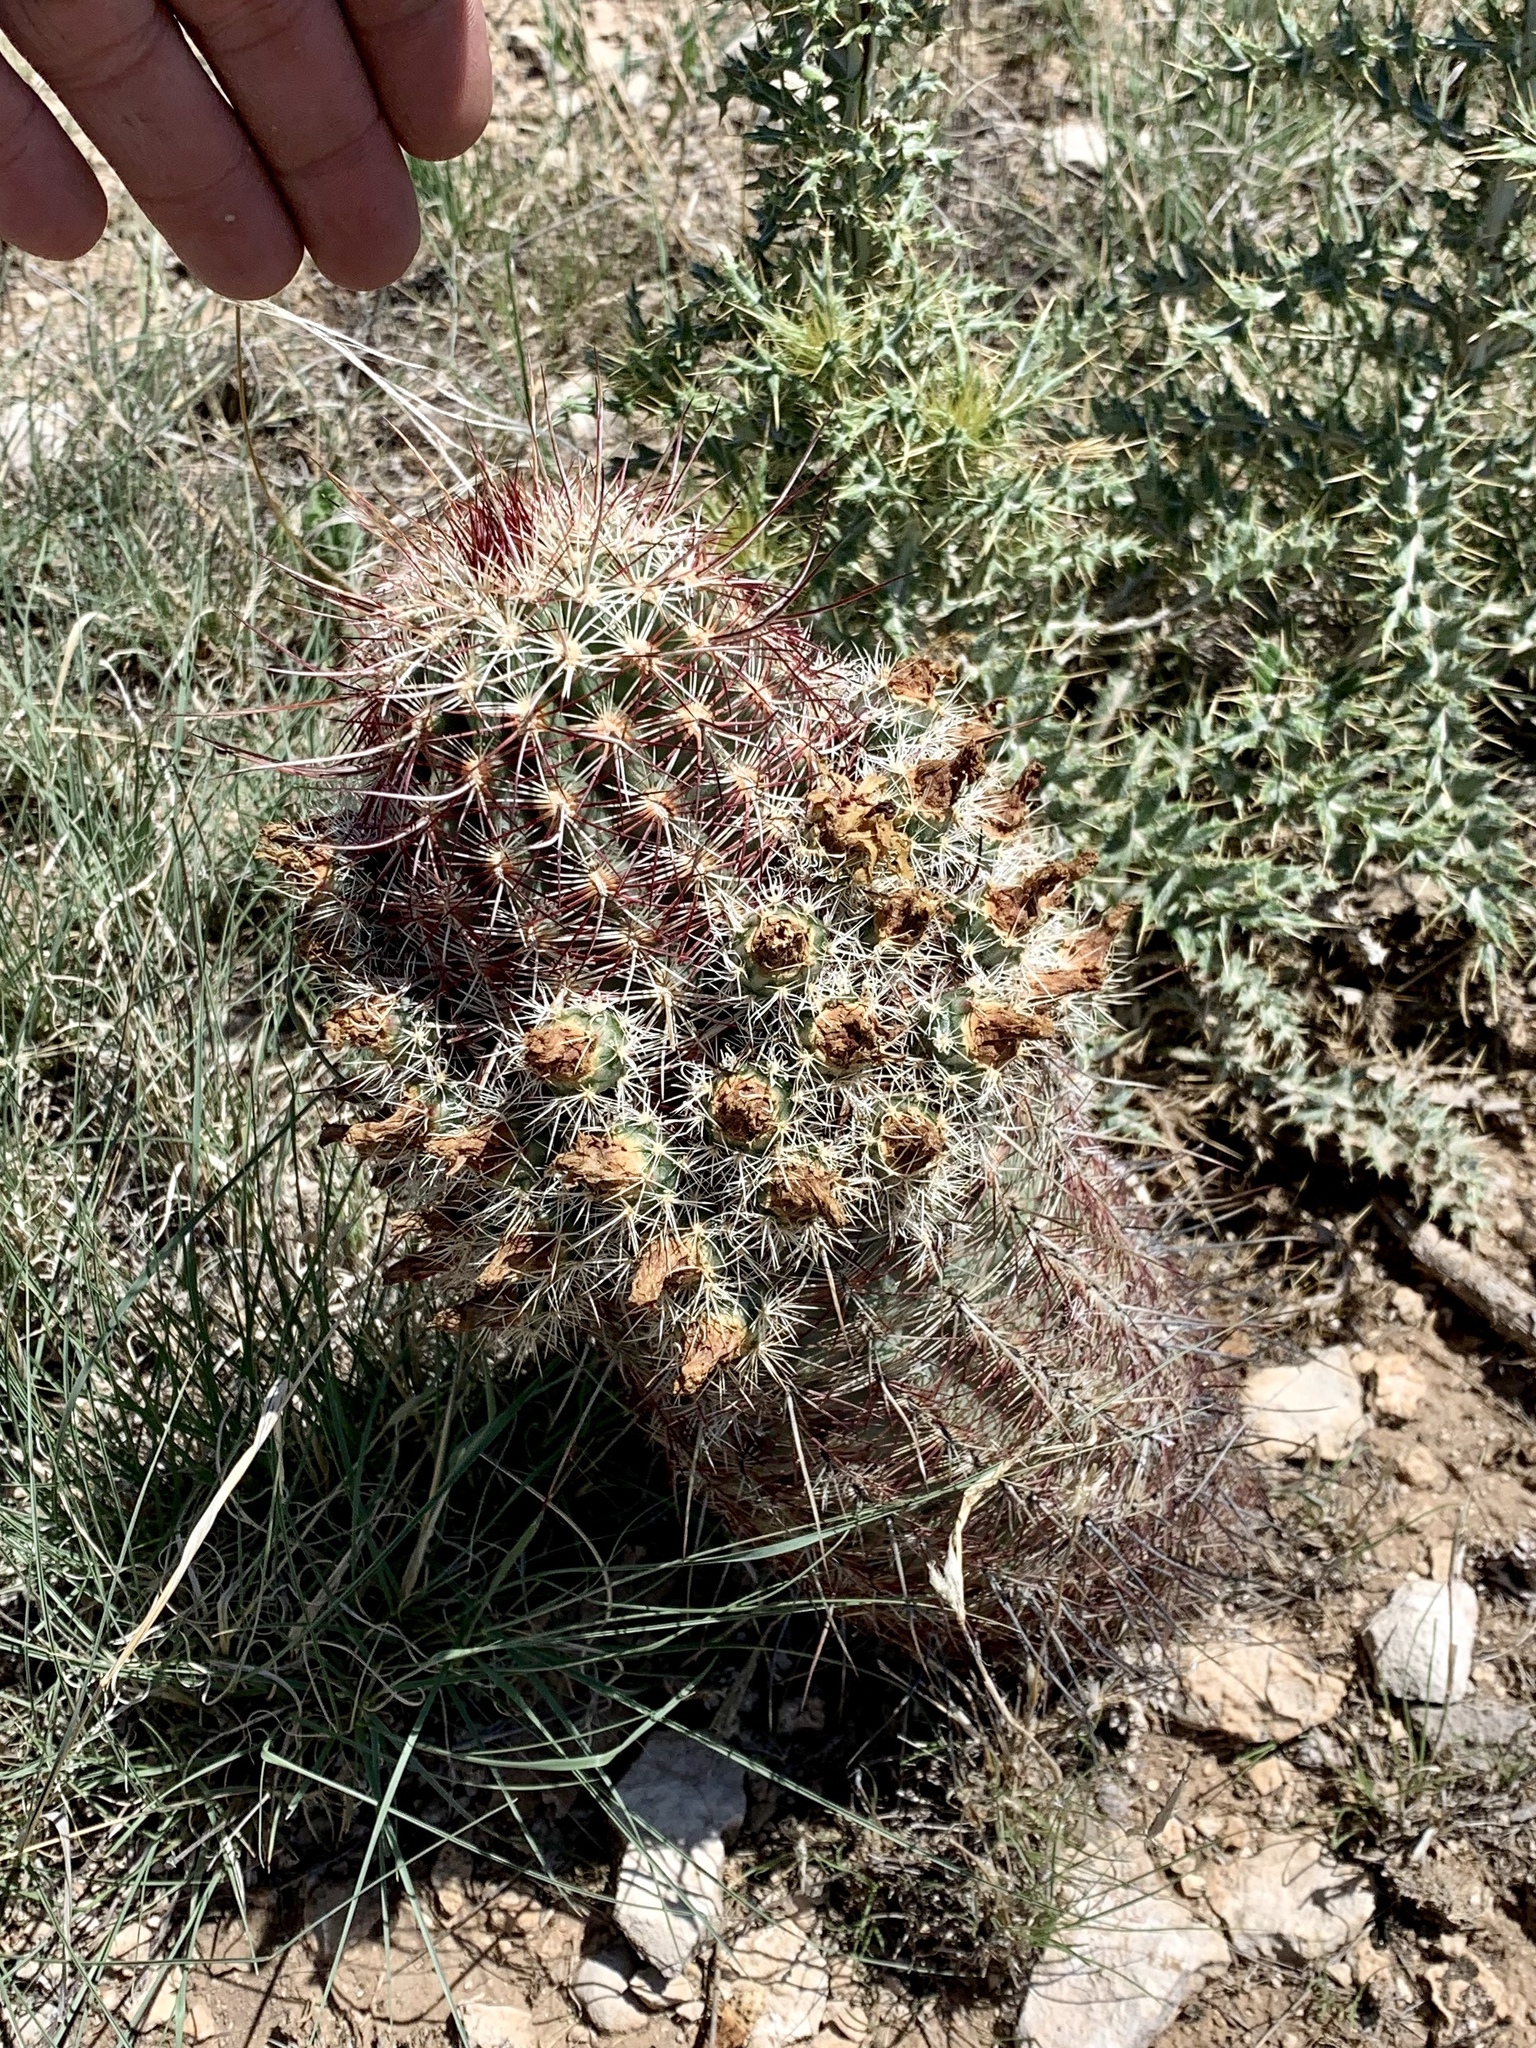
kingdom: Plantae
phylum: Tracheophyta
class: Magnoliopsida
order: Caryophyllales
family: Cactaceae
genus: Echinocereus
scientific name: Echinocereus viridiflorus
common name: Nylon hedgehog cactus
